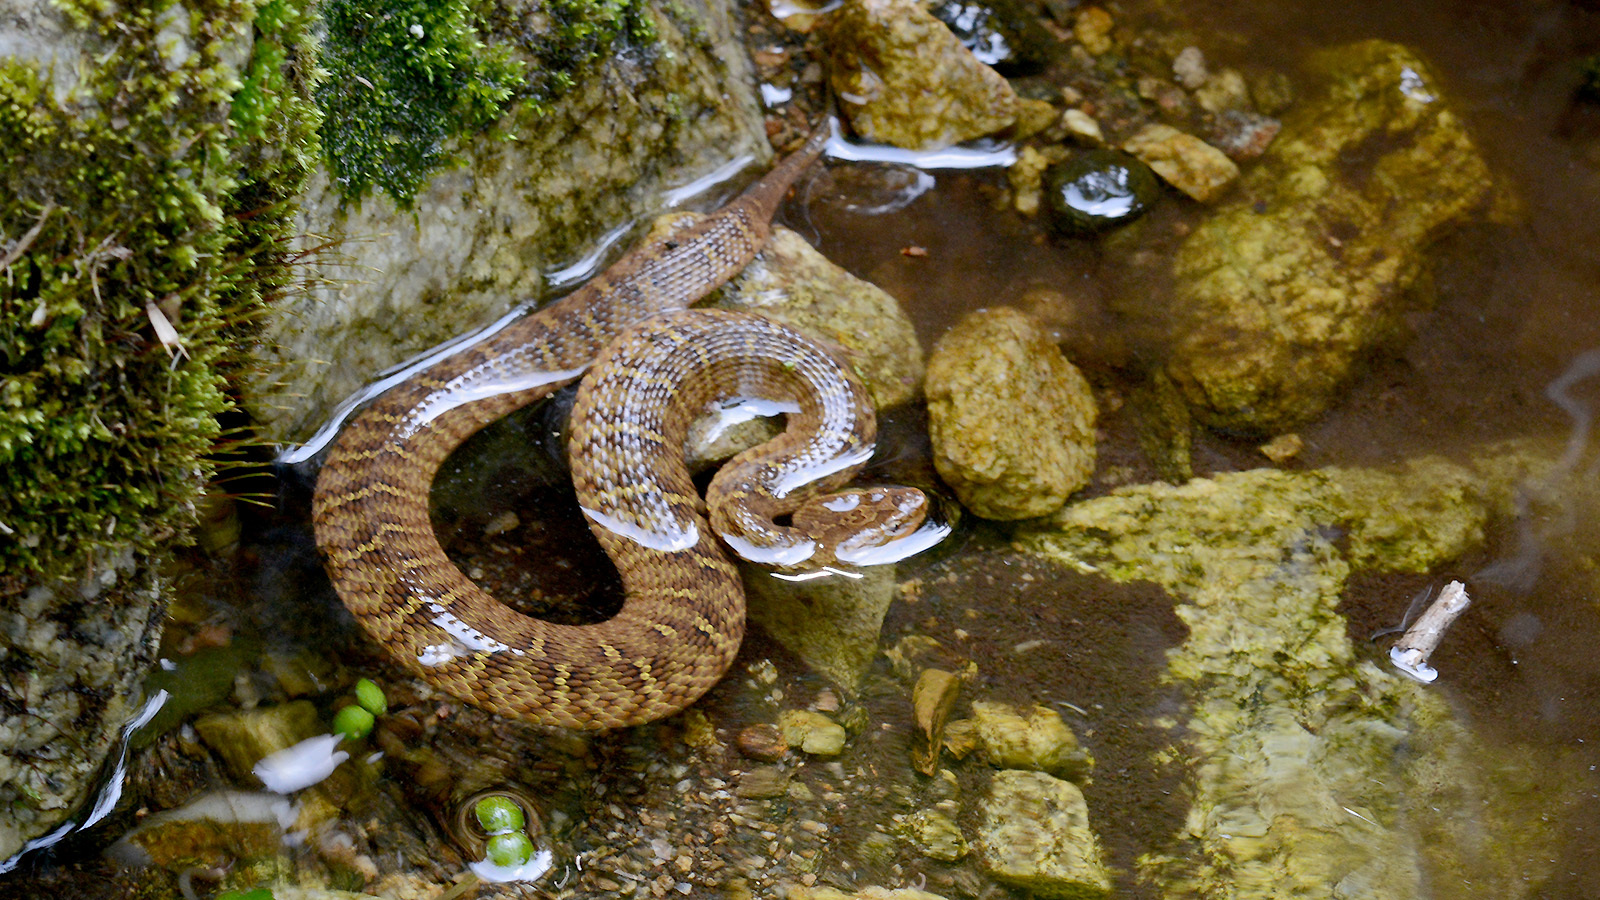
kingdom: Animalia
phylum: Chordata
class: Squamata
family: Viperidae
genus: Gloydius
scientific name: Gloydius ussuriensis
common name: Ussuri mamushi
